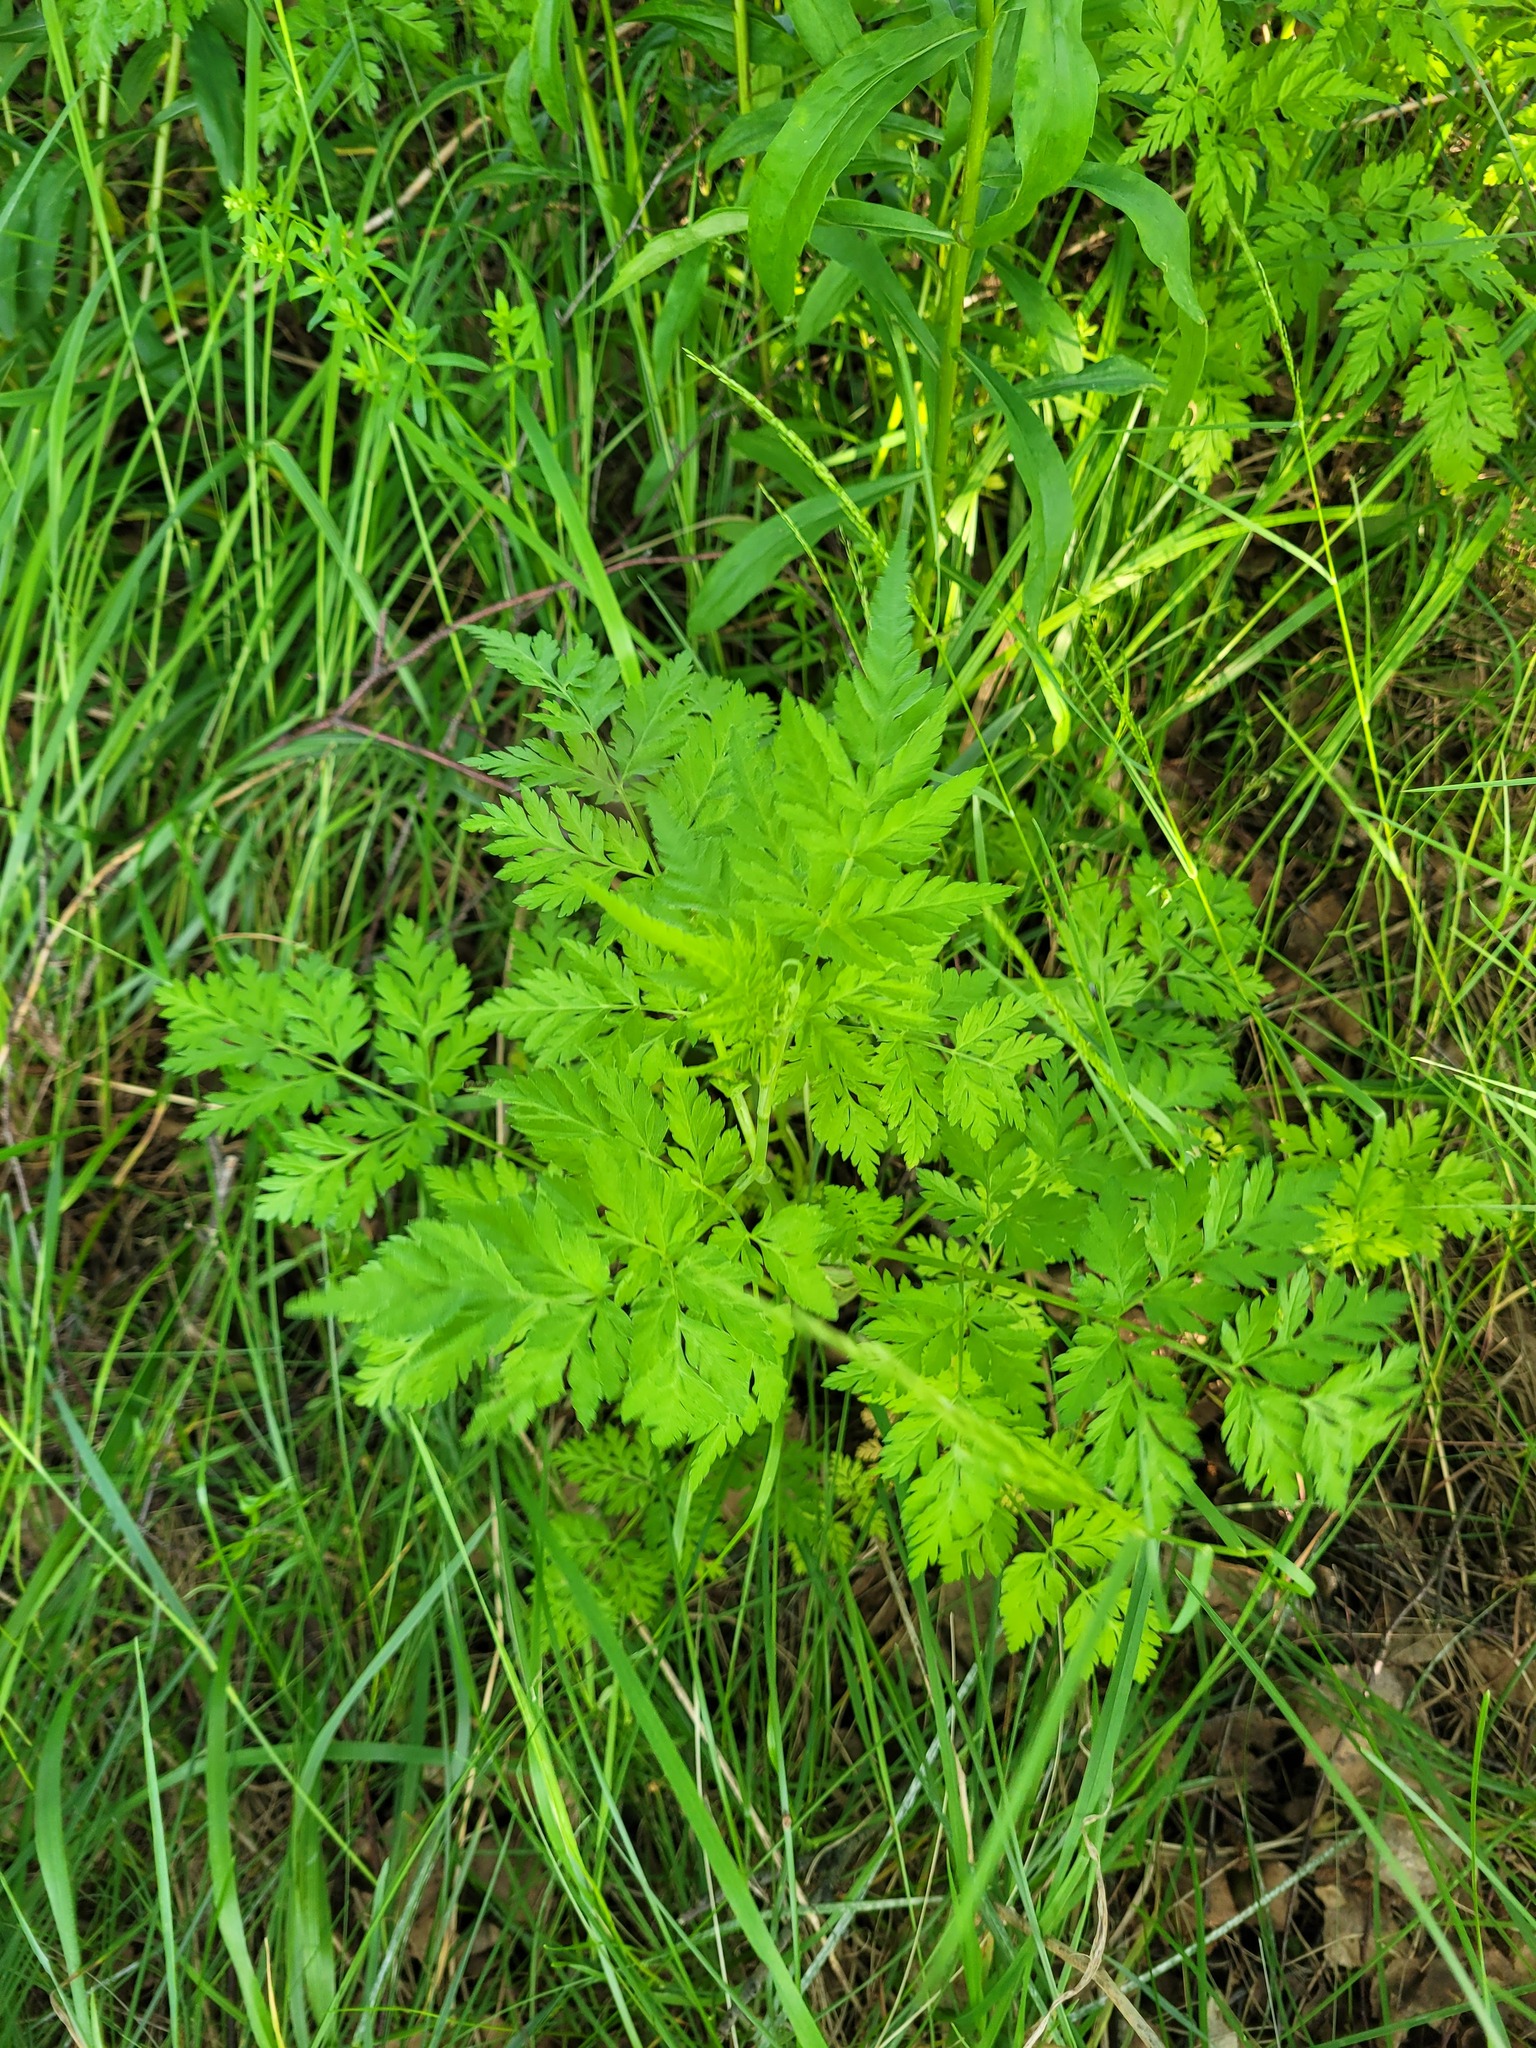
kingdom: Plantae
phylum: Tracheophyta
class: Magnoliopsida
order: Apiales
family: Apiaceae
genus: Torilis
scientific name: Torilis japonica
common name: Upright hedge-parsley
